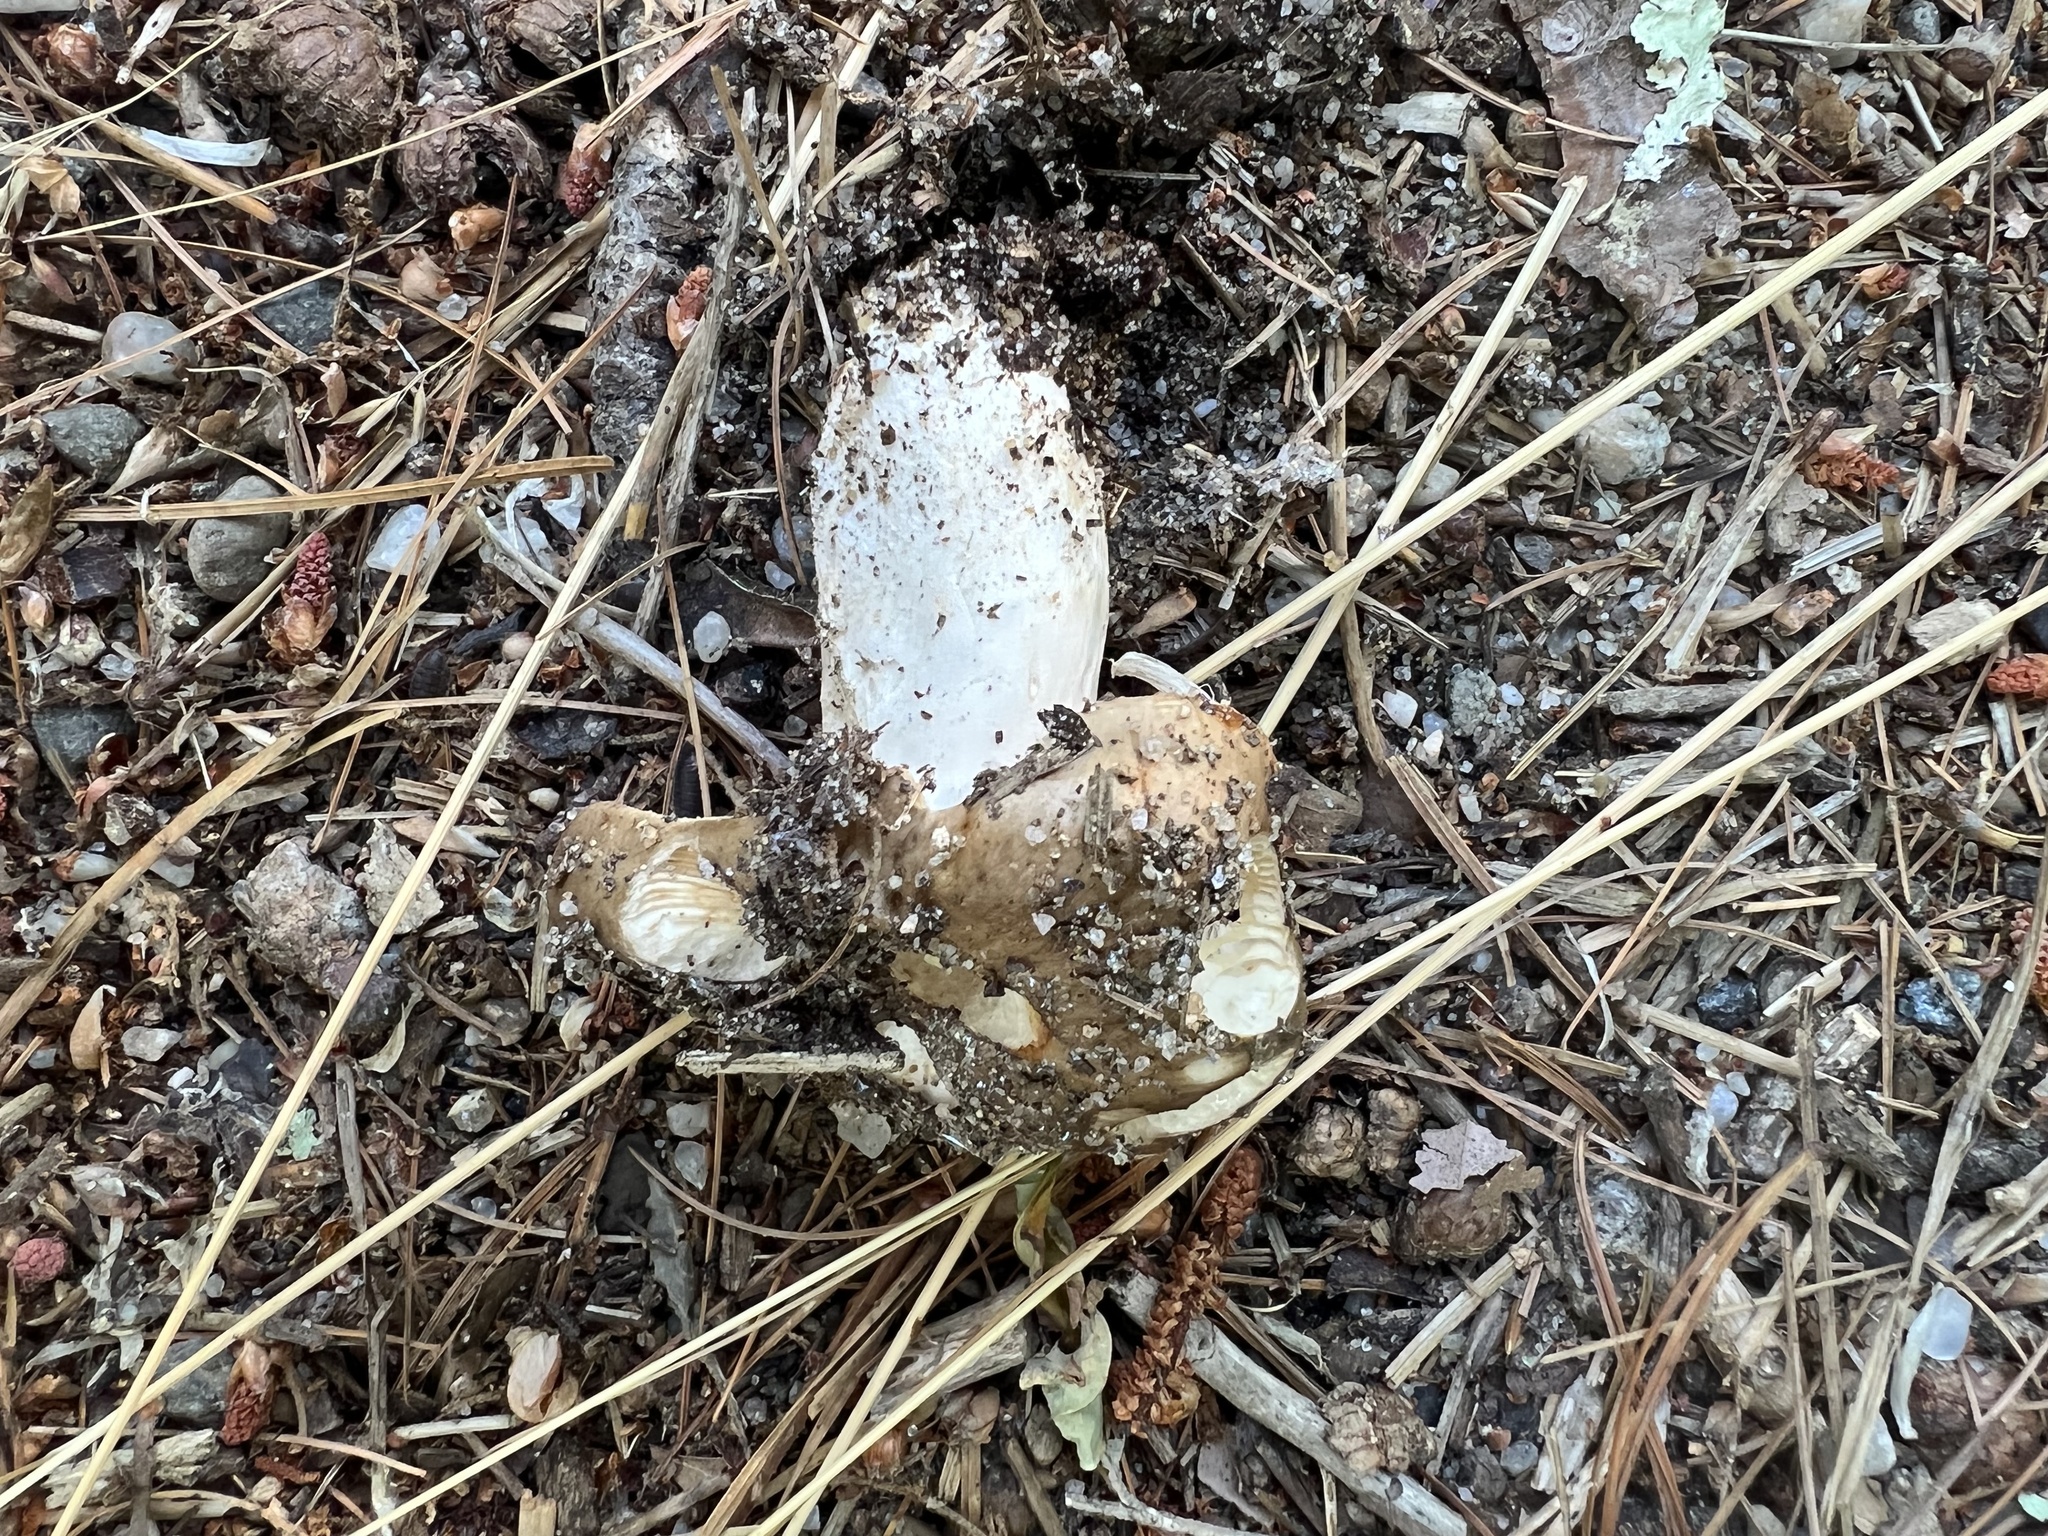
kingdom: Fungi
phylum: Basidiomycota
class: Agaricomycetes
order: Russulales
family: Russulaceae
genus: Russula
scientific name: Russula
